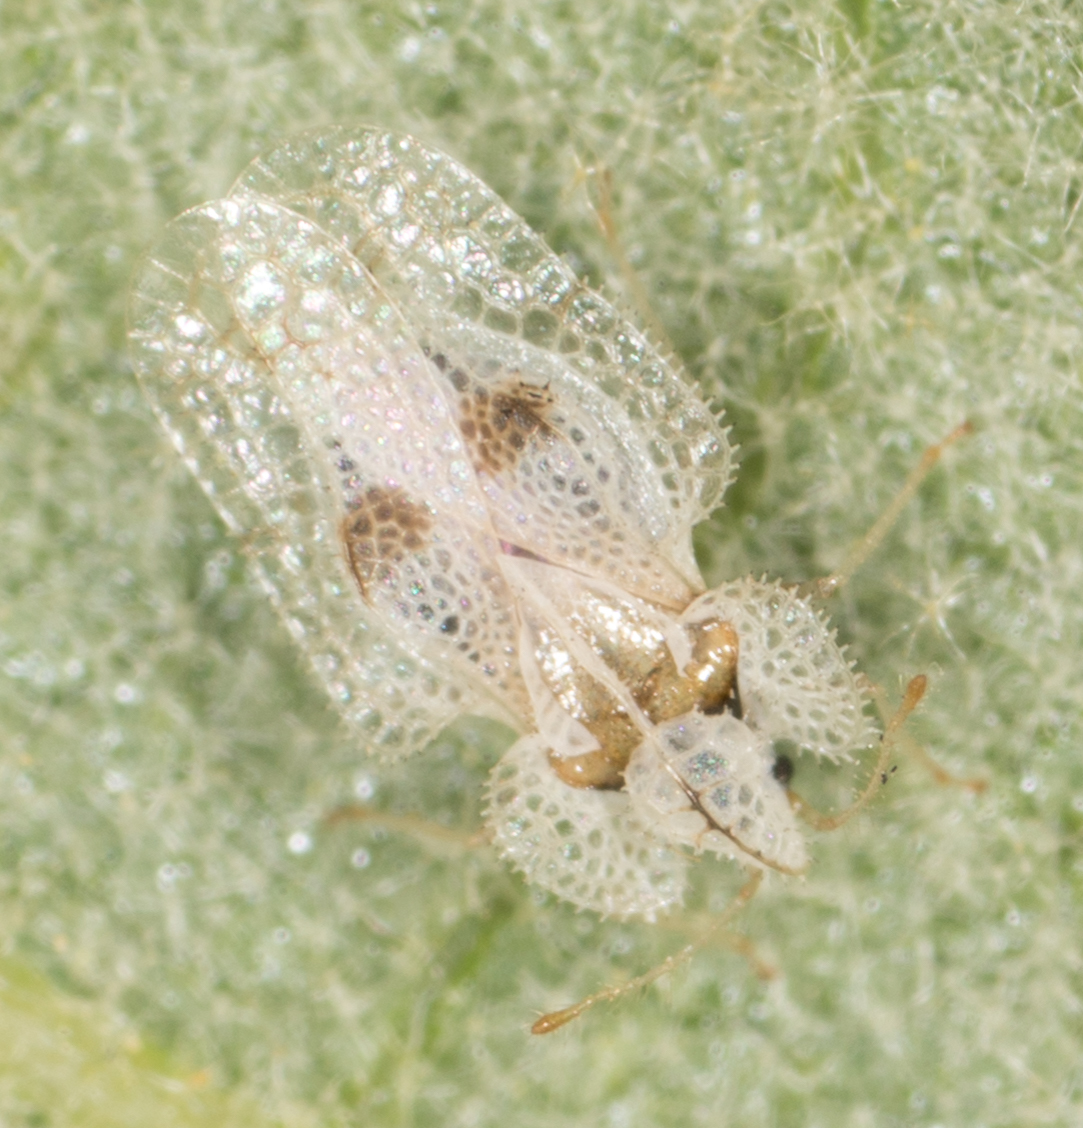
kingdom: Animalia
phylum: Arthropoda
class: Insecta
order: Hemiptera
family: Tingidae
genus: Corythucha
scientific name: Corythucha confraterna
